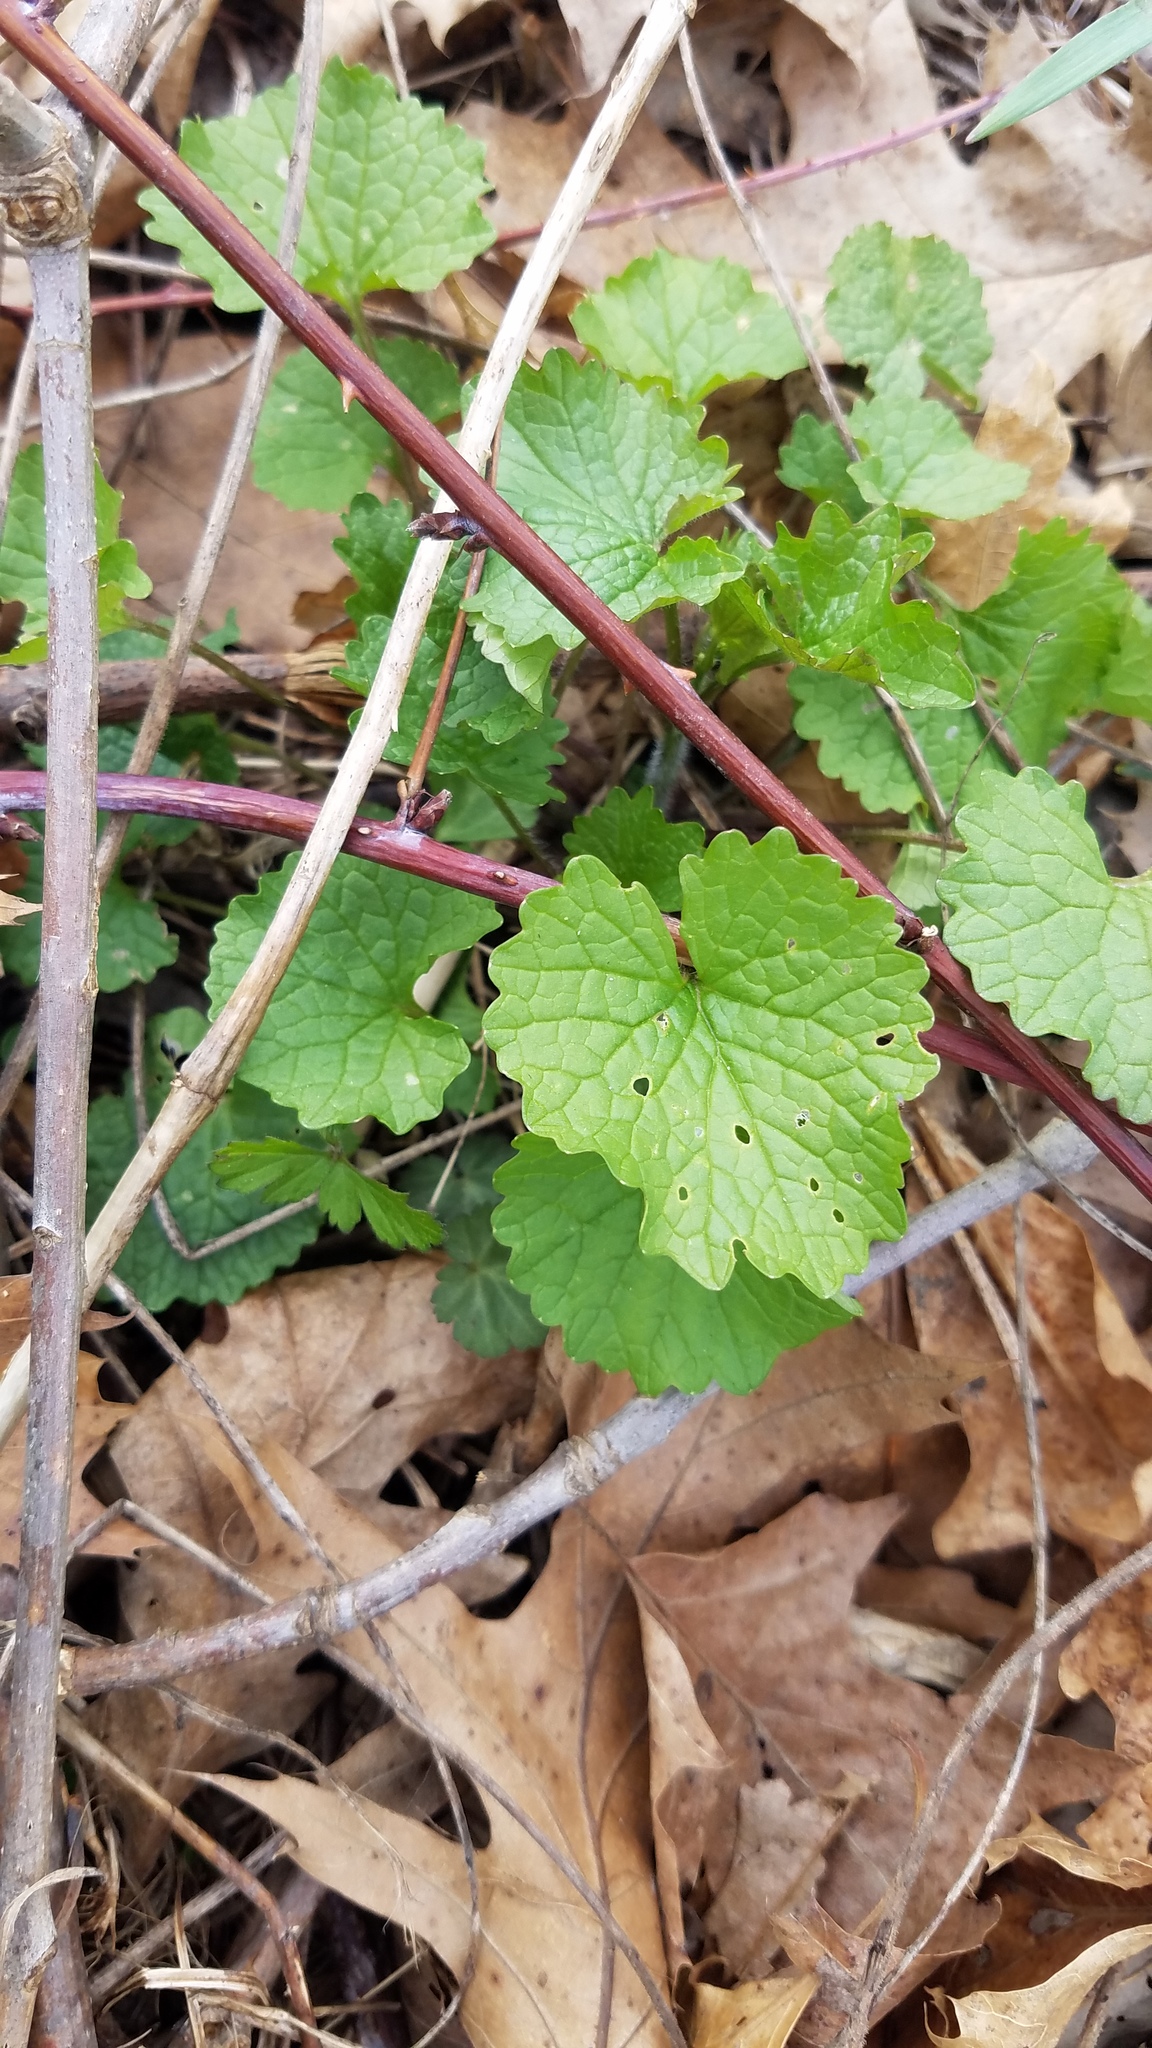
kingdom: Plantae
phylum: Tracheophyta
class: Magnoliopsida
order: Brassicales
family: Brassicaceae
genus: Alliaria
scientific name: Alliaria petiolata
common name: Garlic mustard
